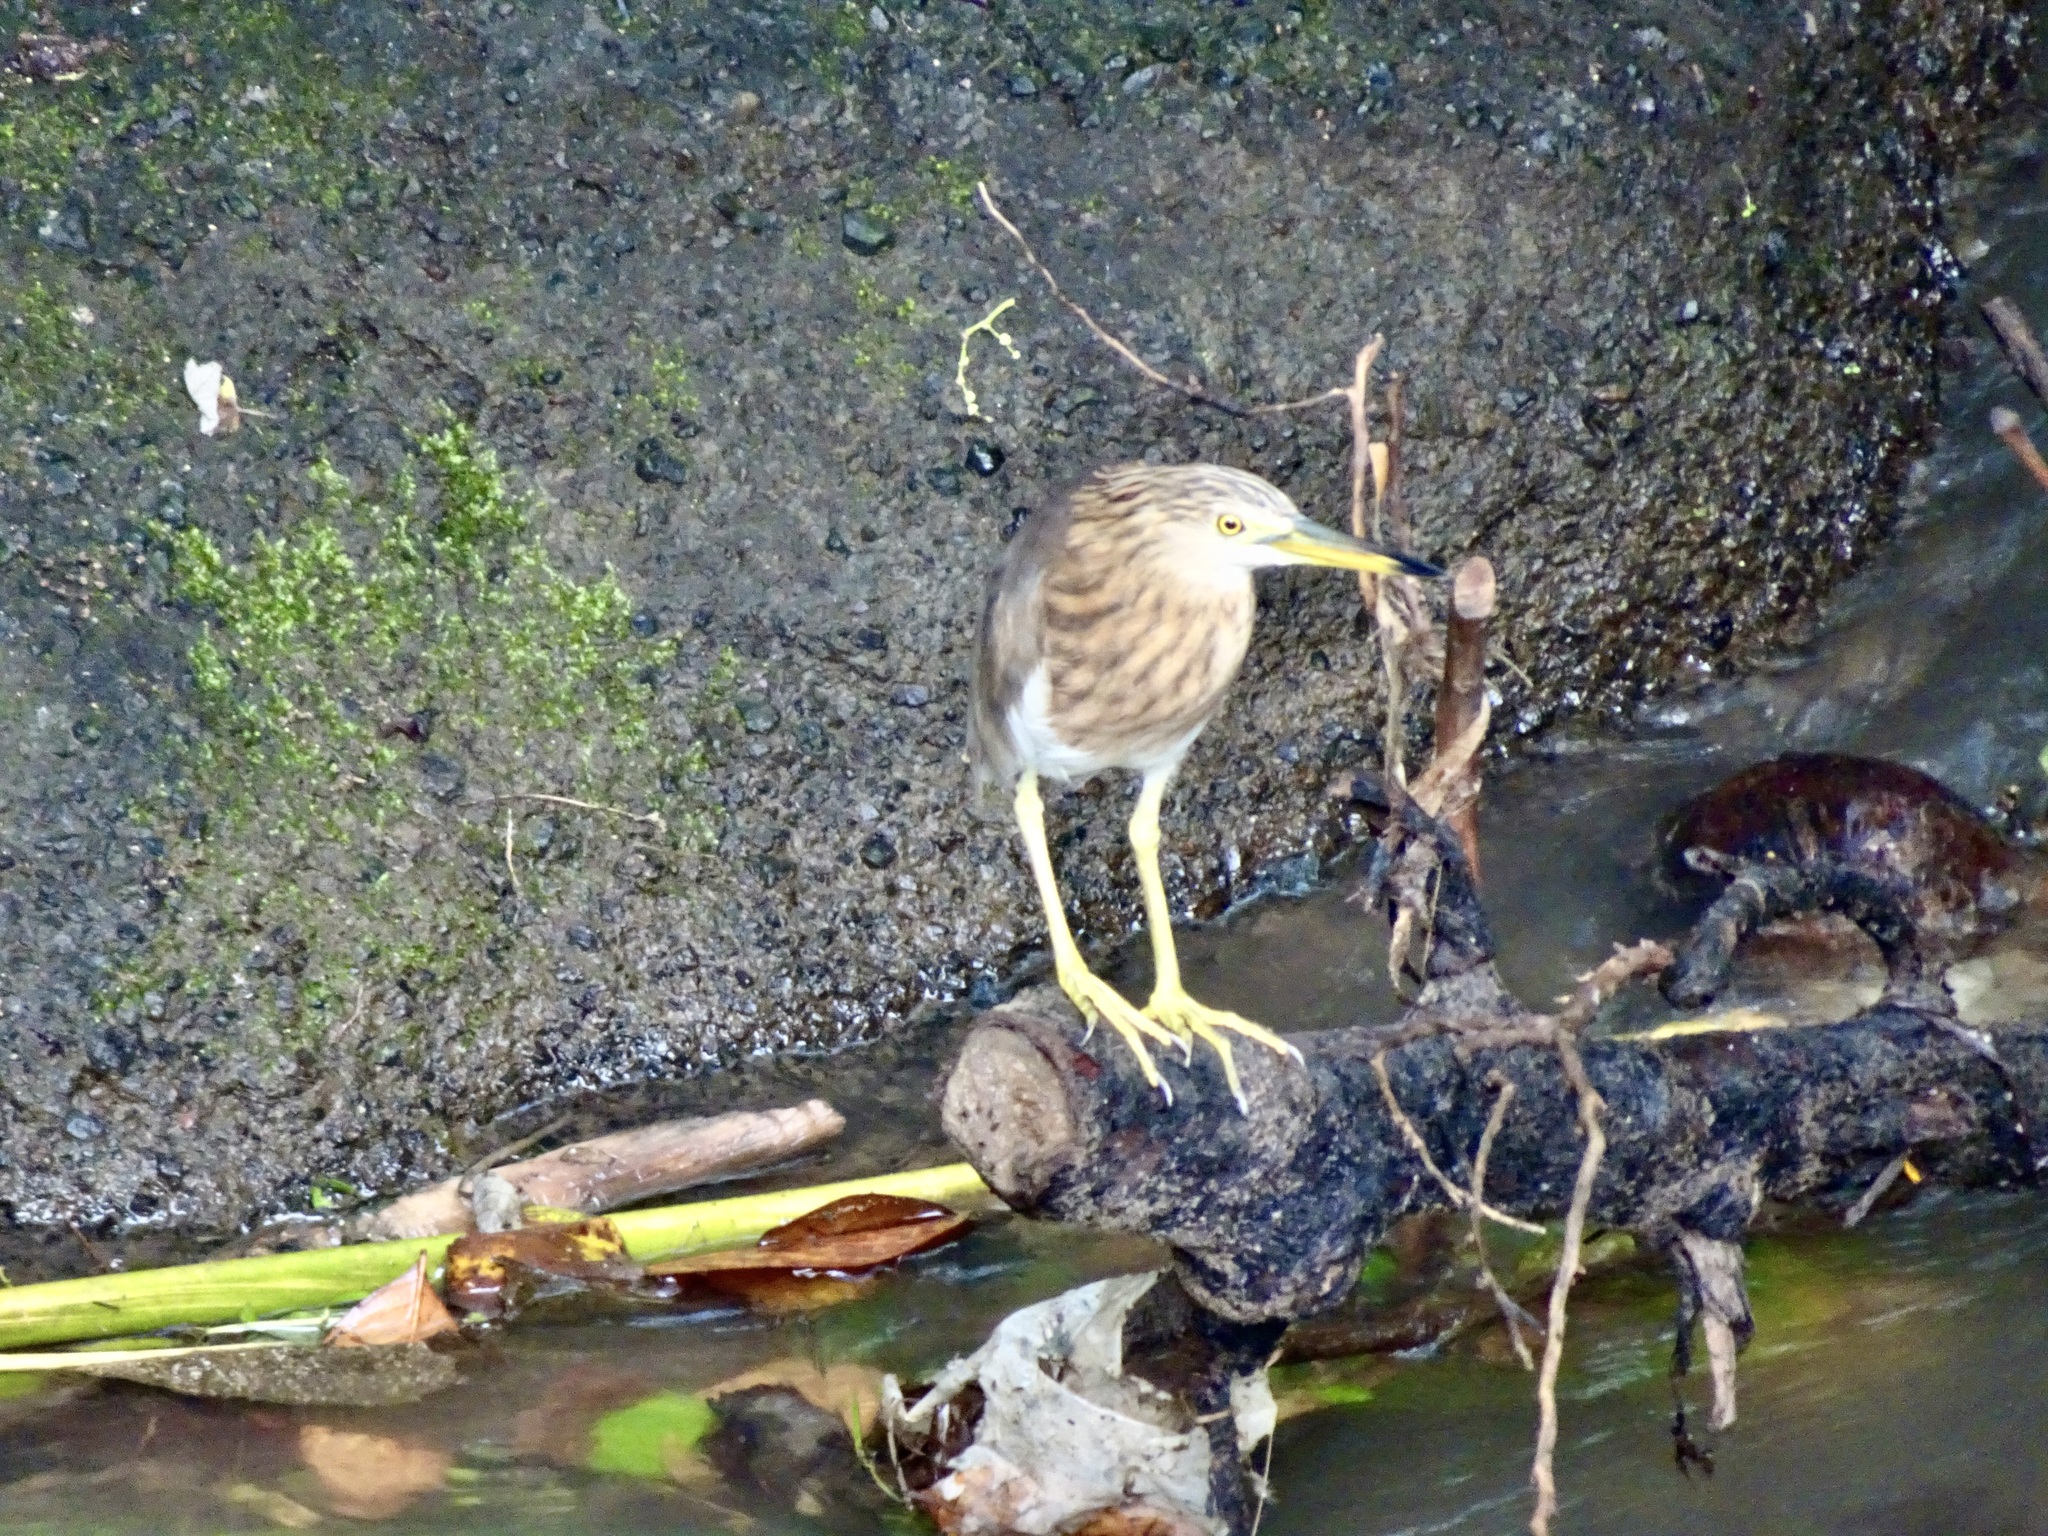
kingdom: Animalia
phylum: Chordata
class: Aves
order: Pelecaniformes
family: Ardeidae
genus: Ardeola
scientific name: Ardeola speciosa
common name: Javan pond heron
